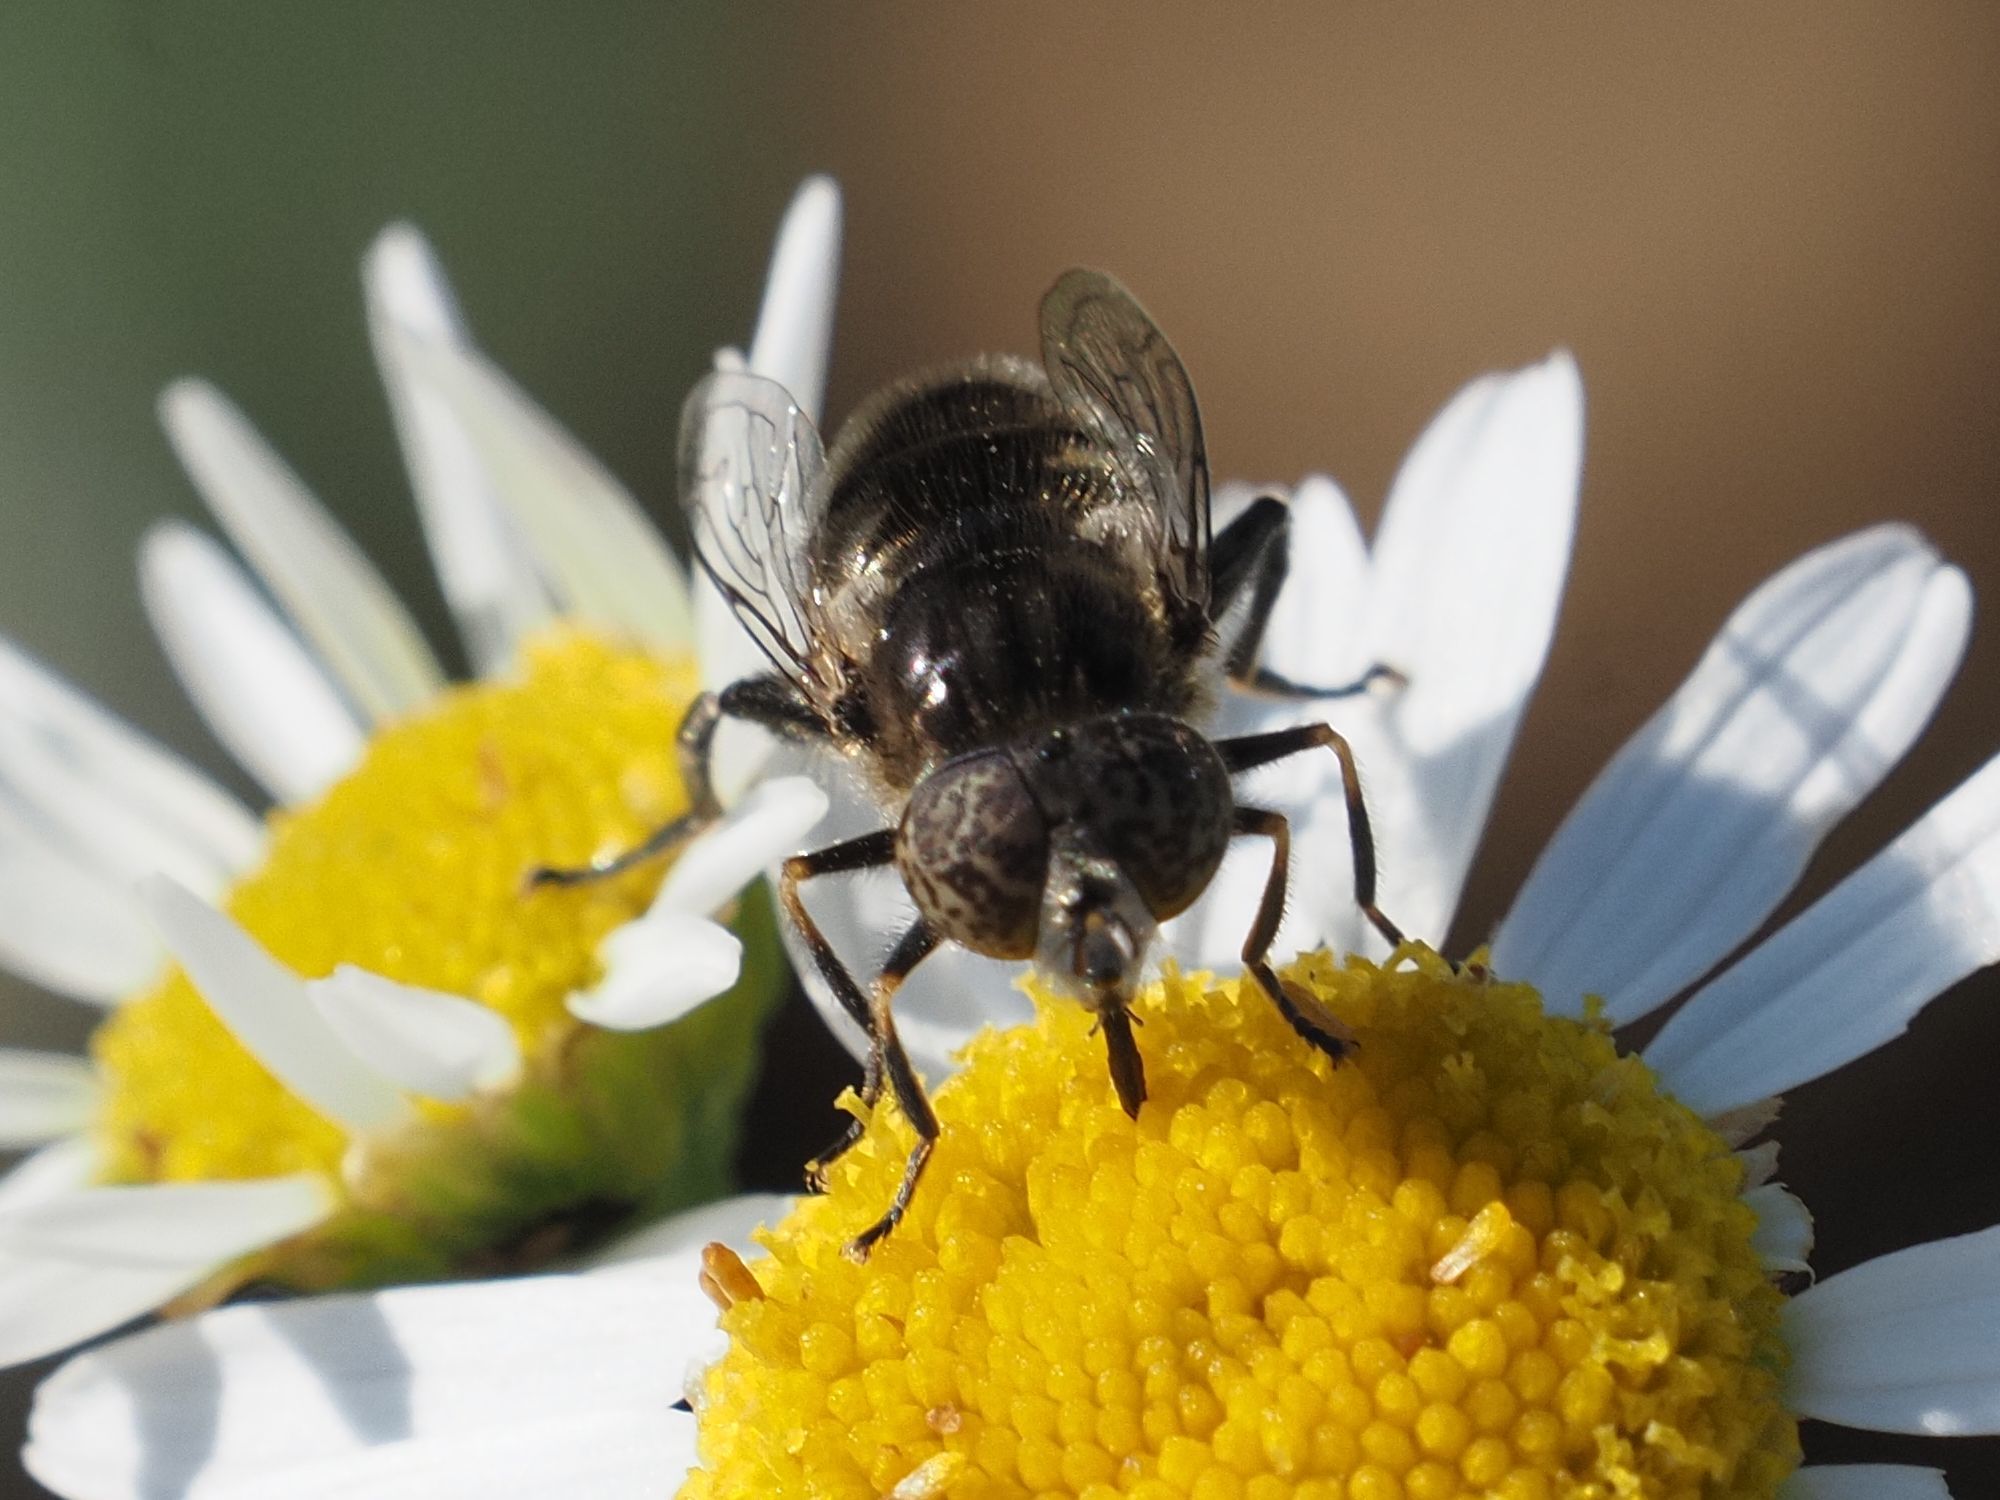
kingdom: Animalia
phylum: Arthropoda
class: Insecta
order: Diptera
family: Syrphidae
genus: Eristalinus
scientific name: Eristalinus sepulchralis
